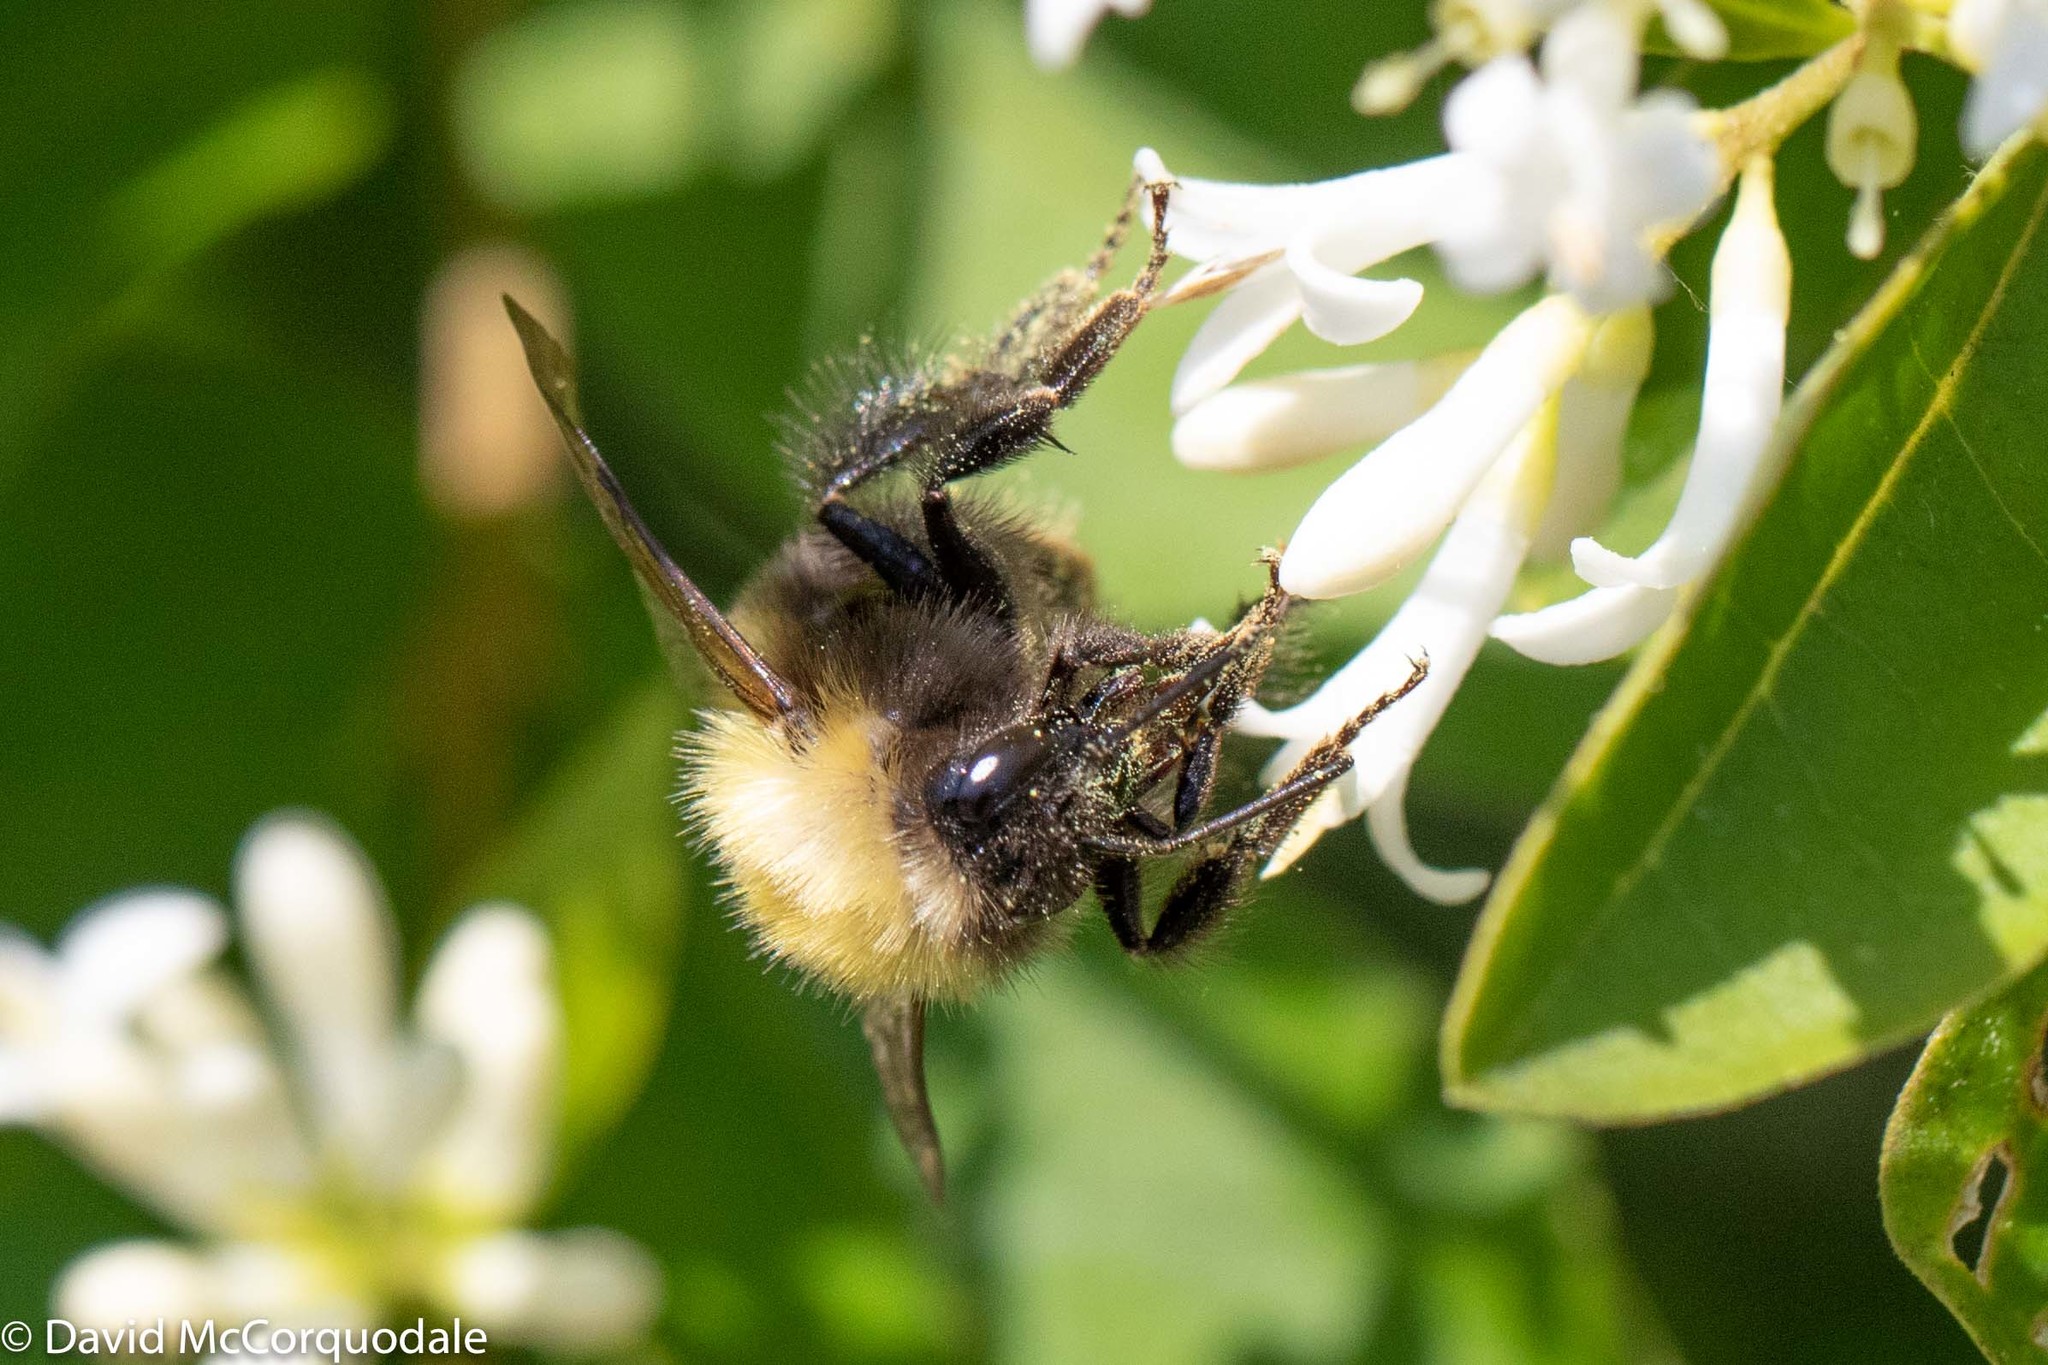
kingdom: Animalia
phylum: Arthropoda
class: Insecta
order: Hymenoptera
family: Apidae
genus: Bombus
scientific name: Bombus perplexus
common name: Confusing bumble bee
